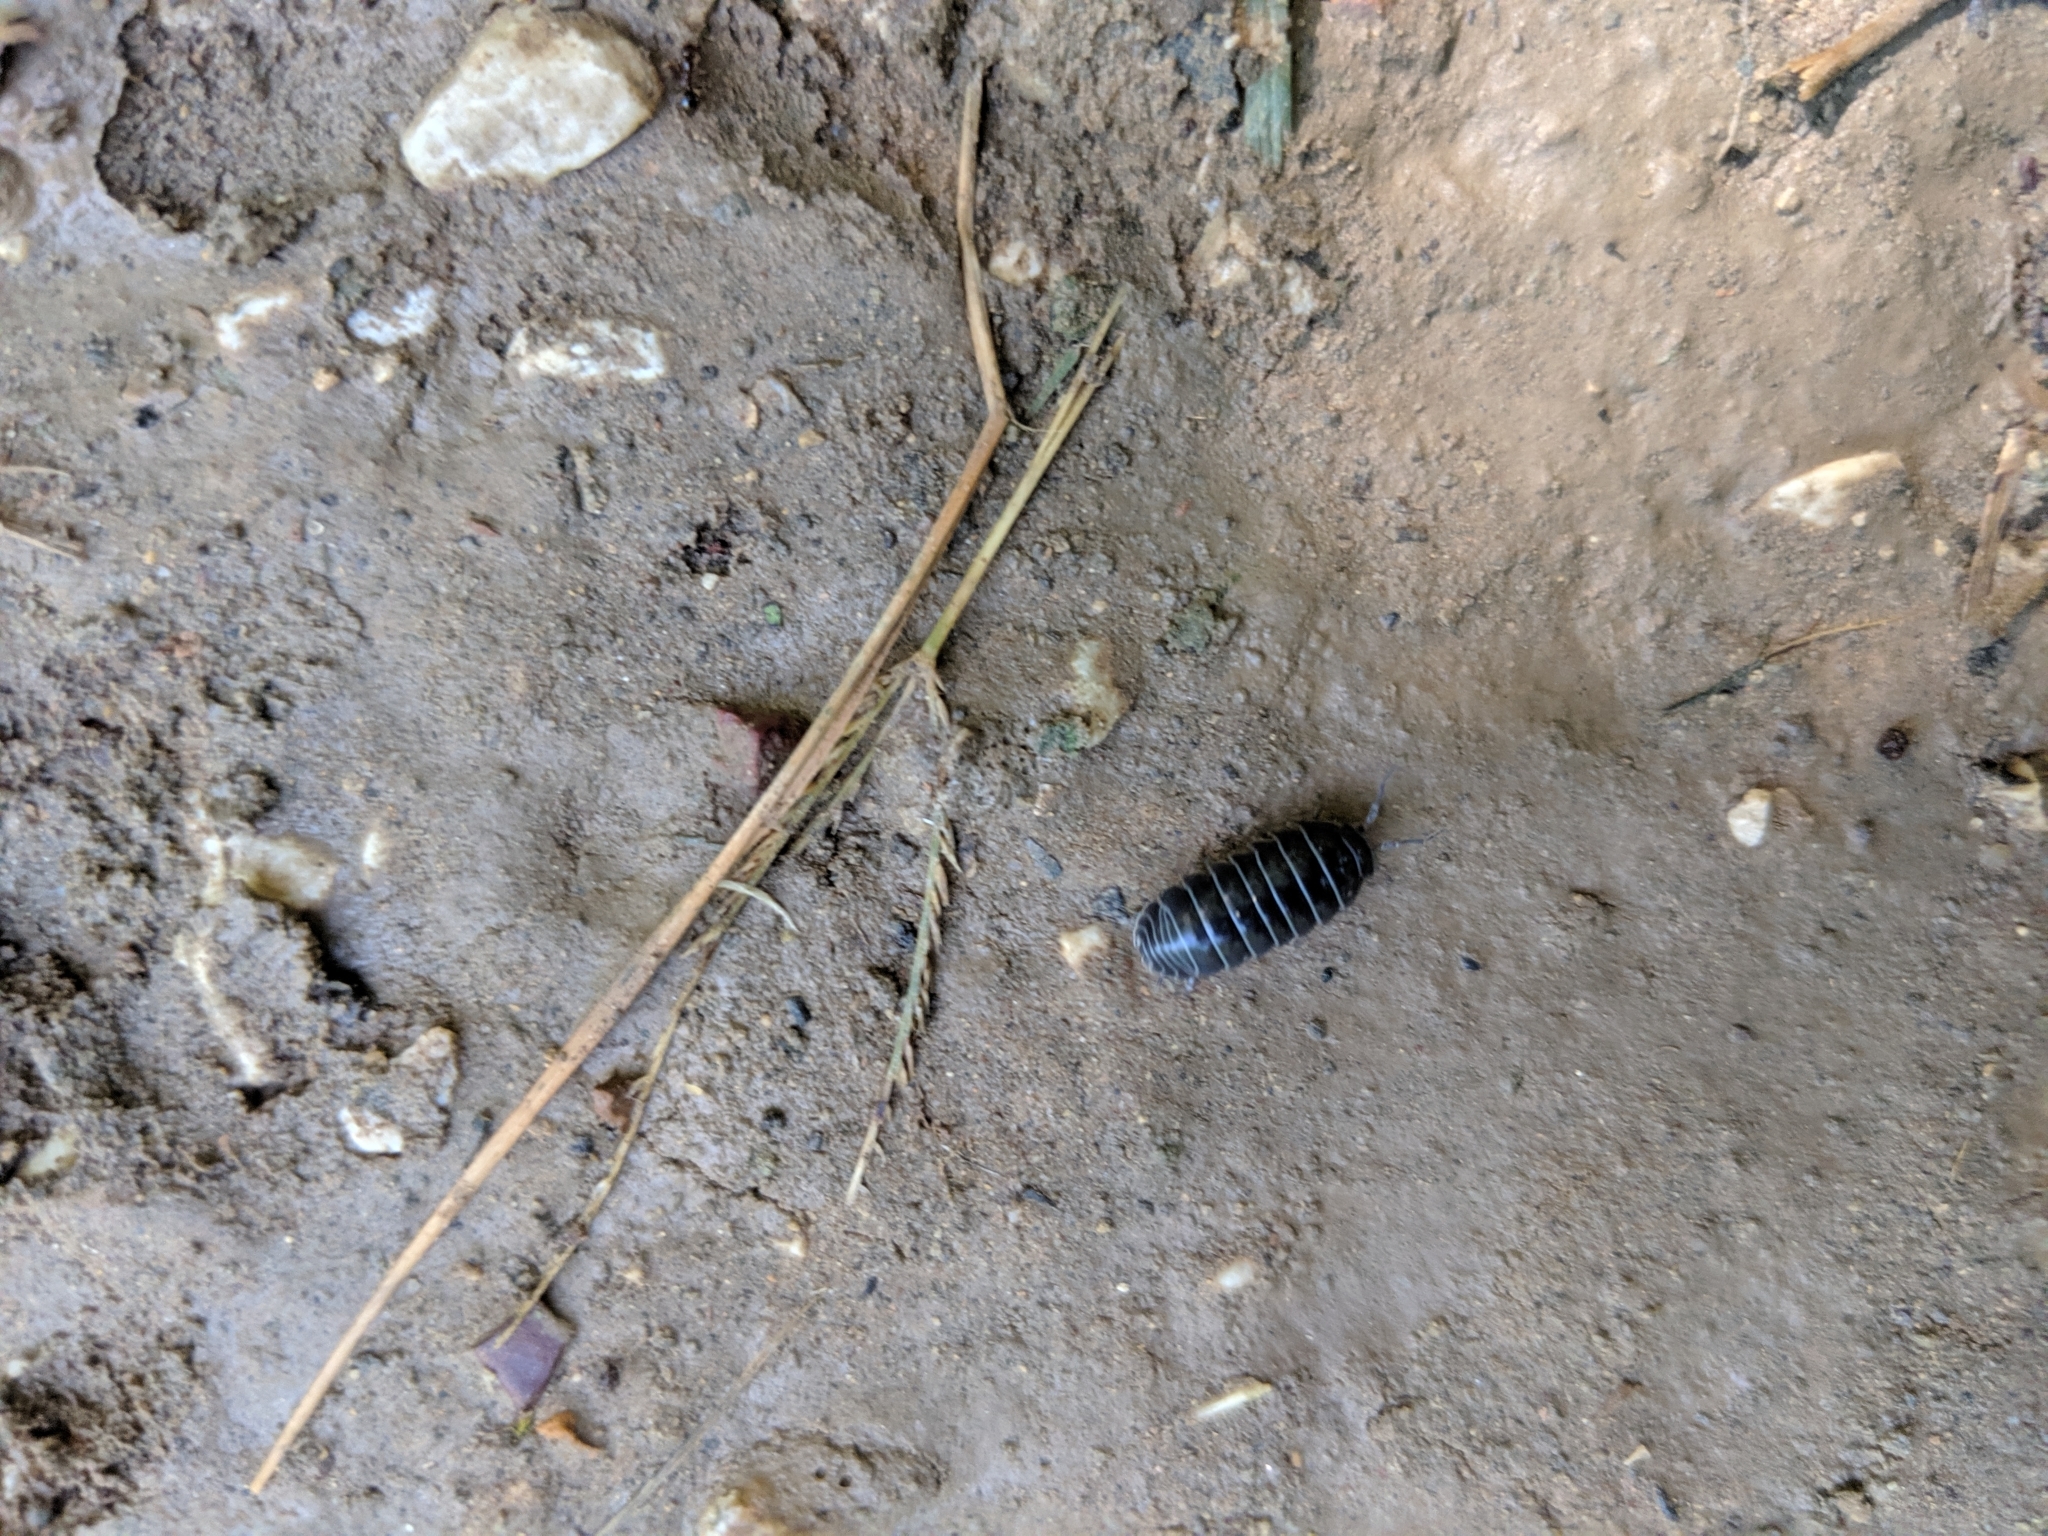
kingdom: Animalia
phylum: Arthropoda
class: Malacostraca
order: Isopoda
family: Armadillidiidae
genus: Armadillidium
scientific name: Armadillidium vulgare
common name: Common pill woodlouse
